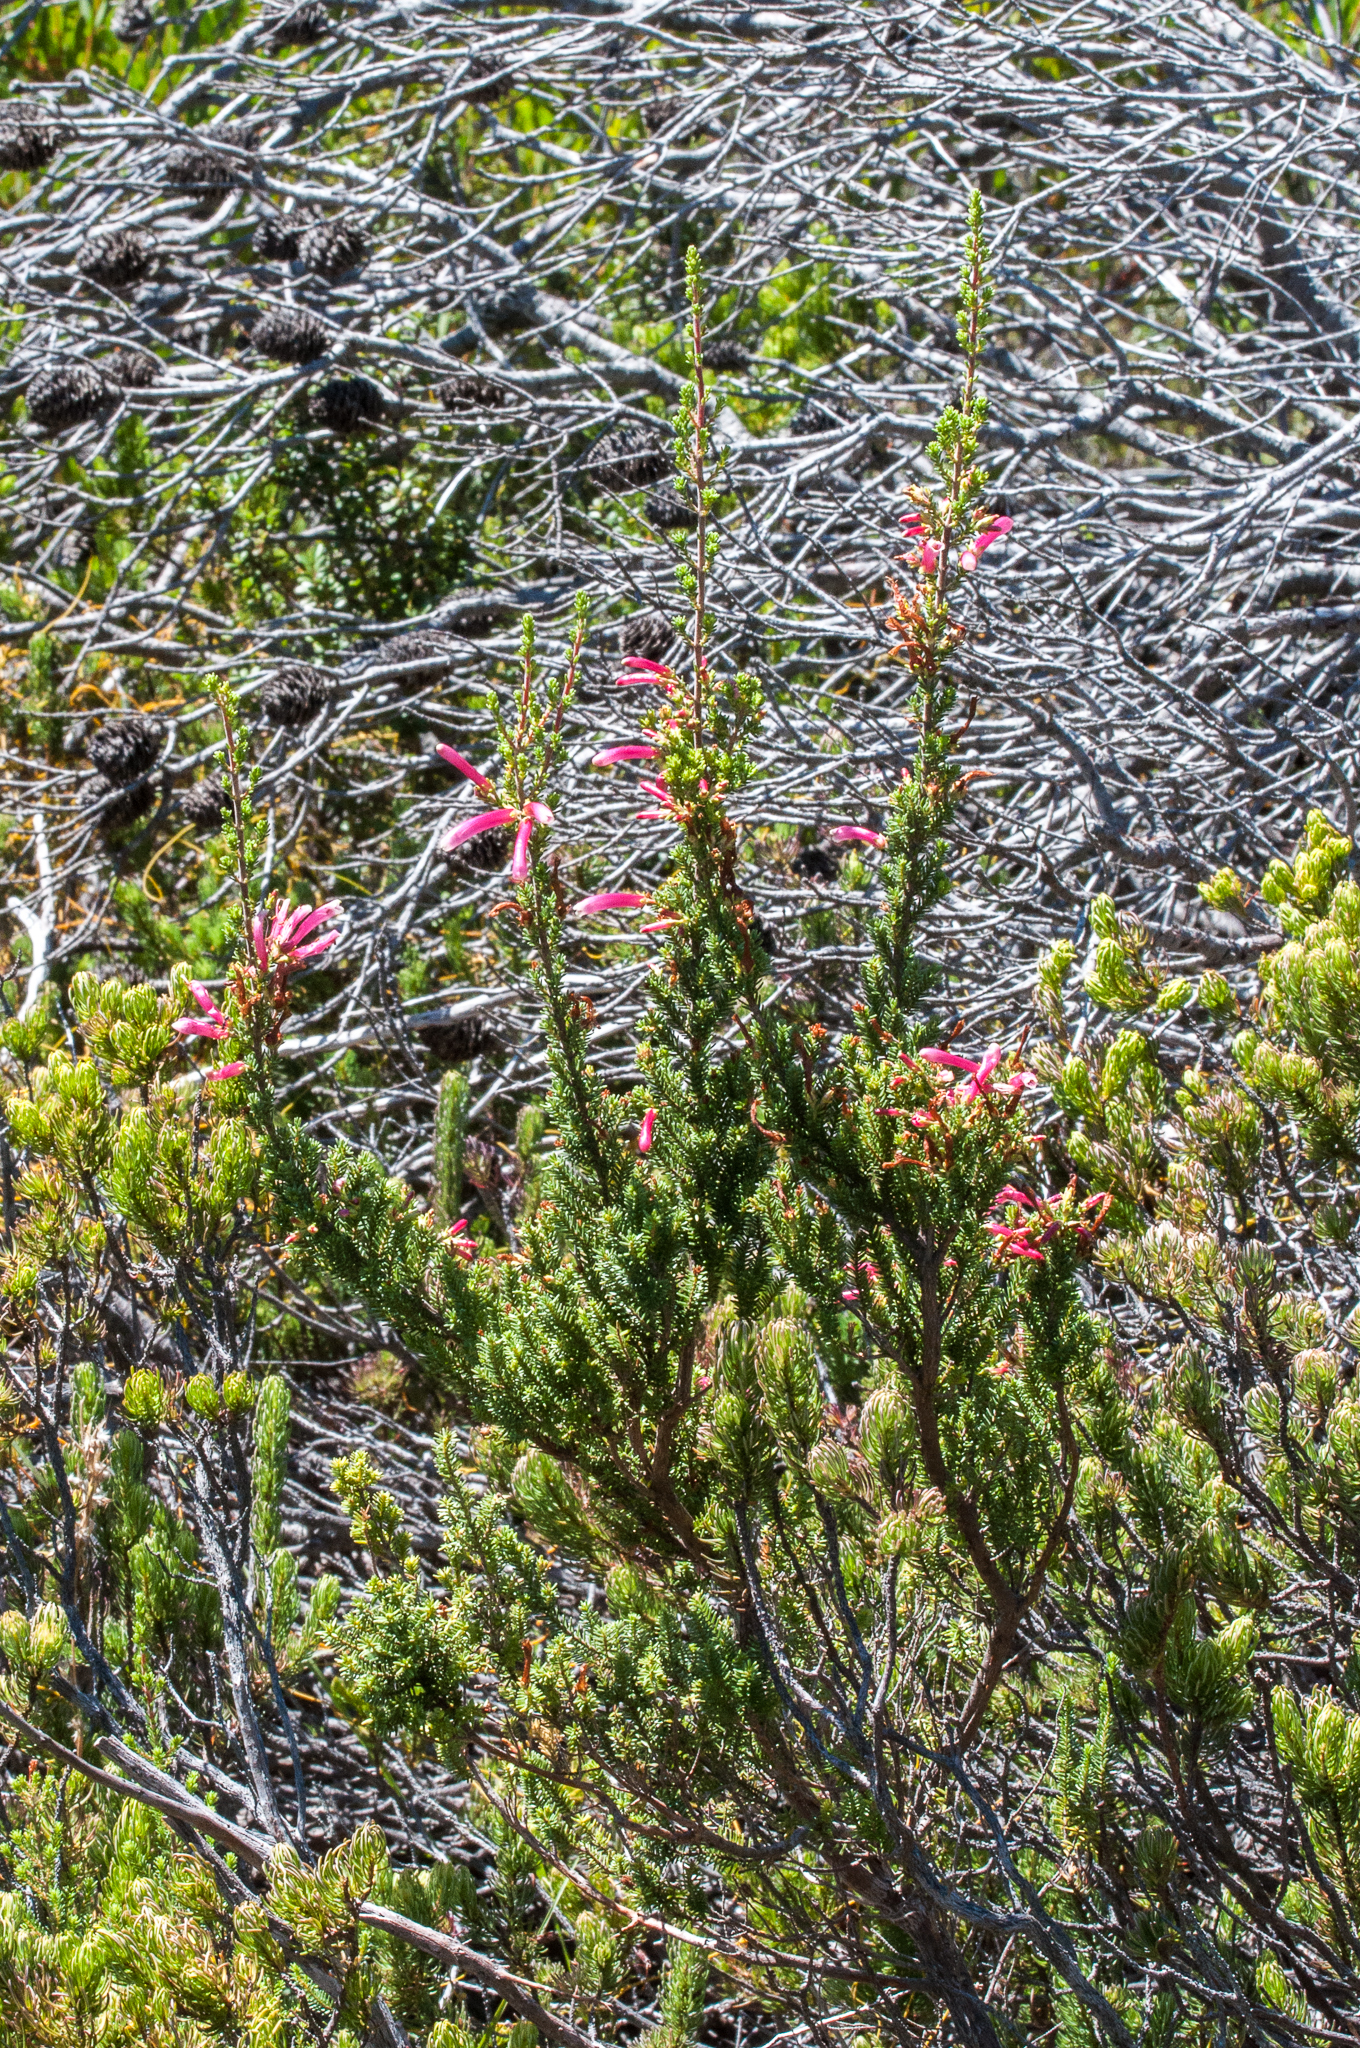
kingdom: Plantae
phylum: Tracheophyta
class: Magnoliopsida
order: Ericales
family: Ericaceae
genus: Erica
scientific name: Erica discolor
